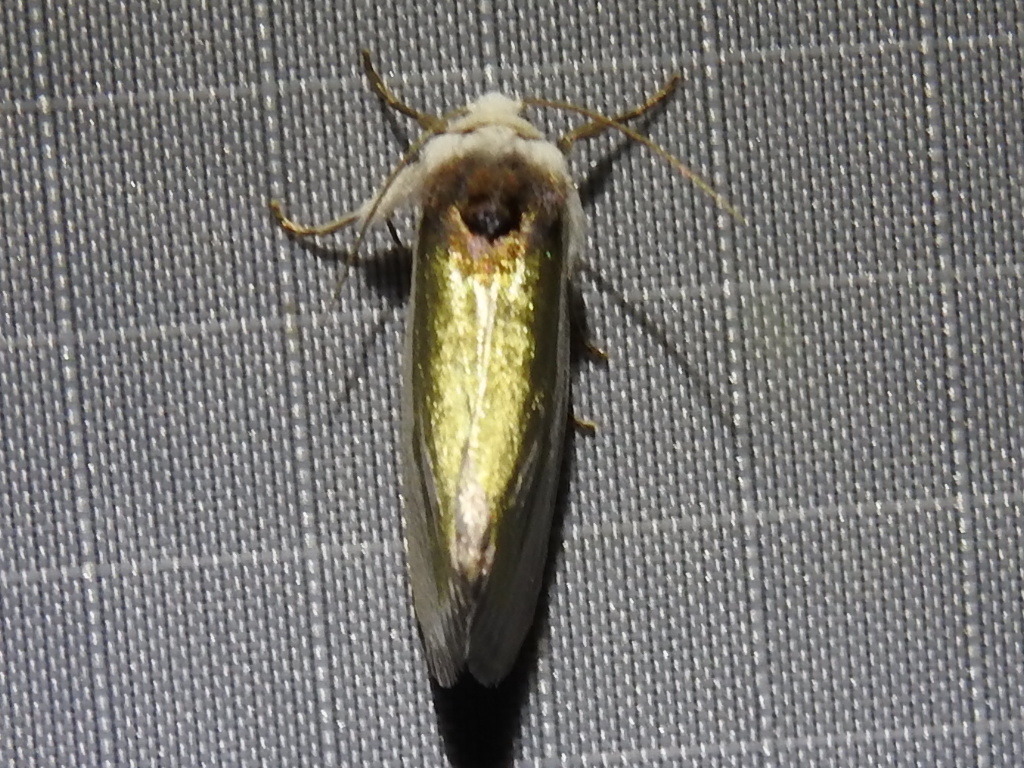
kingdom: Animalia
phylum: Arthropoda
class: Insecta
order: Lepidoptera
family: Noctuidae
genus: Neumoegenia
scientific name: Neumoegenia poetica
